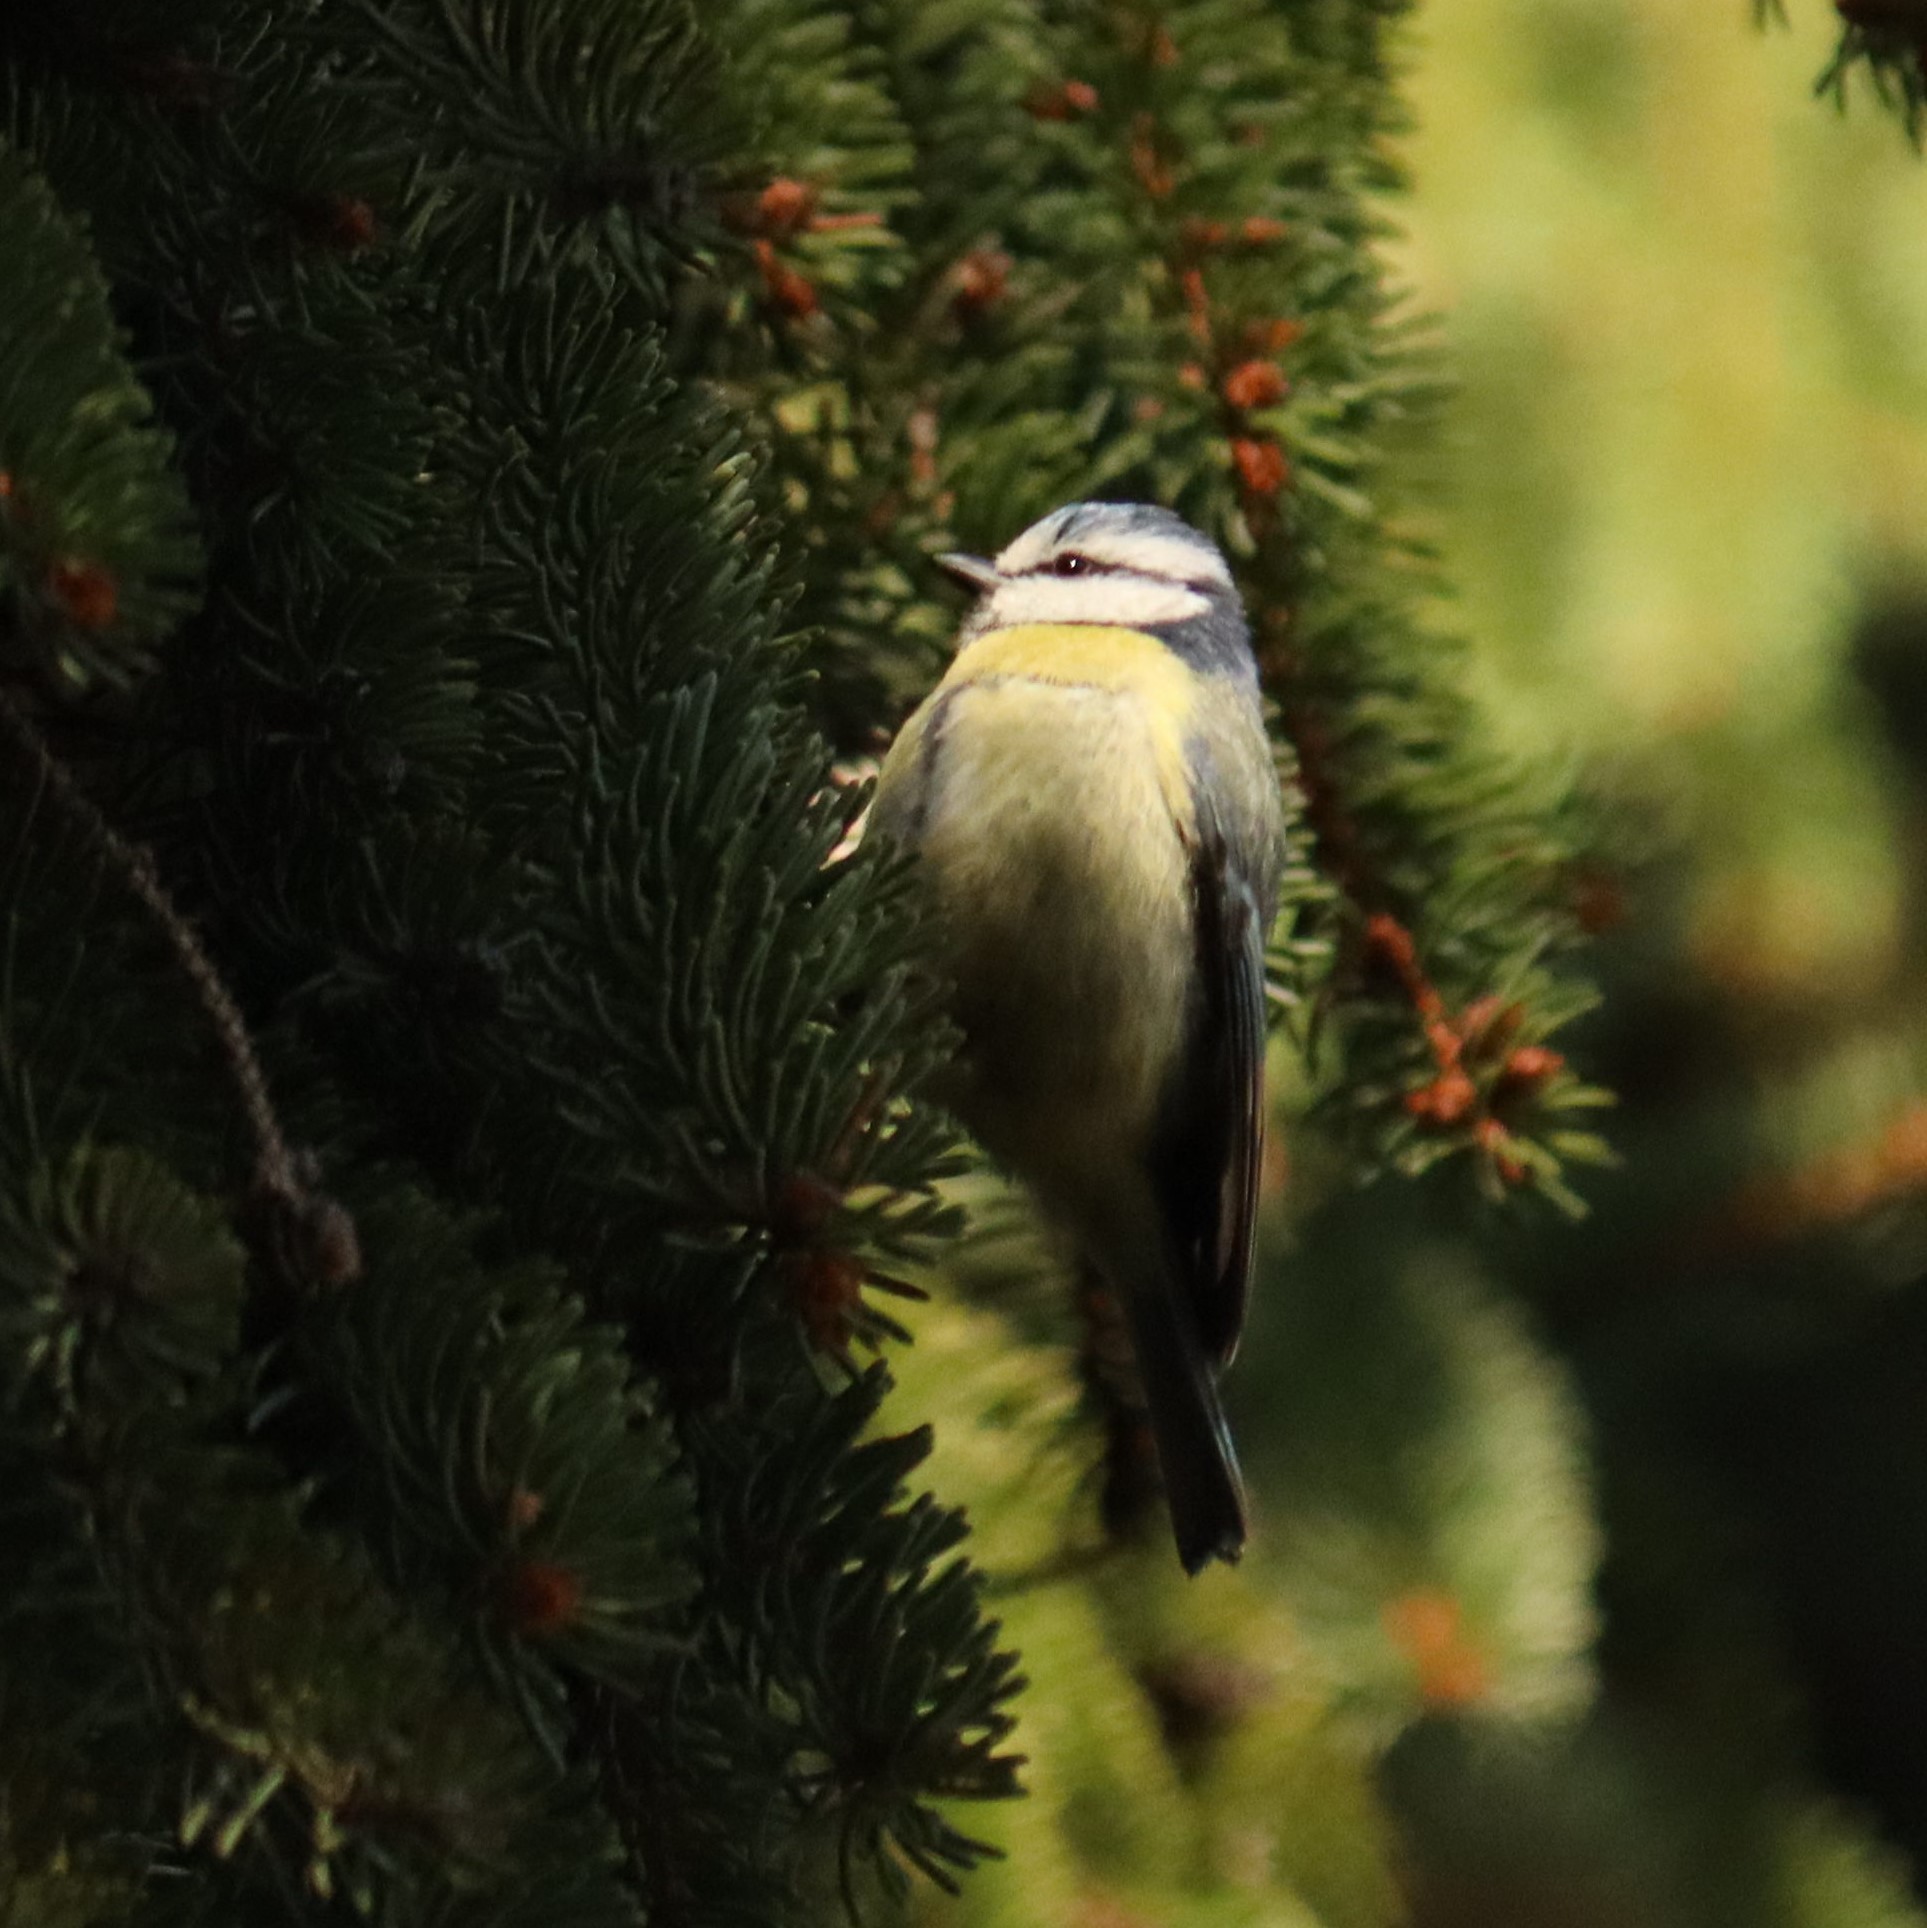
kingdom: Animalia
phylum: Chordata
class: Aves
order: Passeriformes
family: Paridae
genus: Cyanistes
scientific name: Cyanistes caeruleus
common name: Eurasian blue tit
